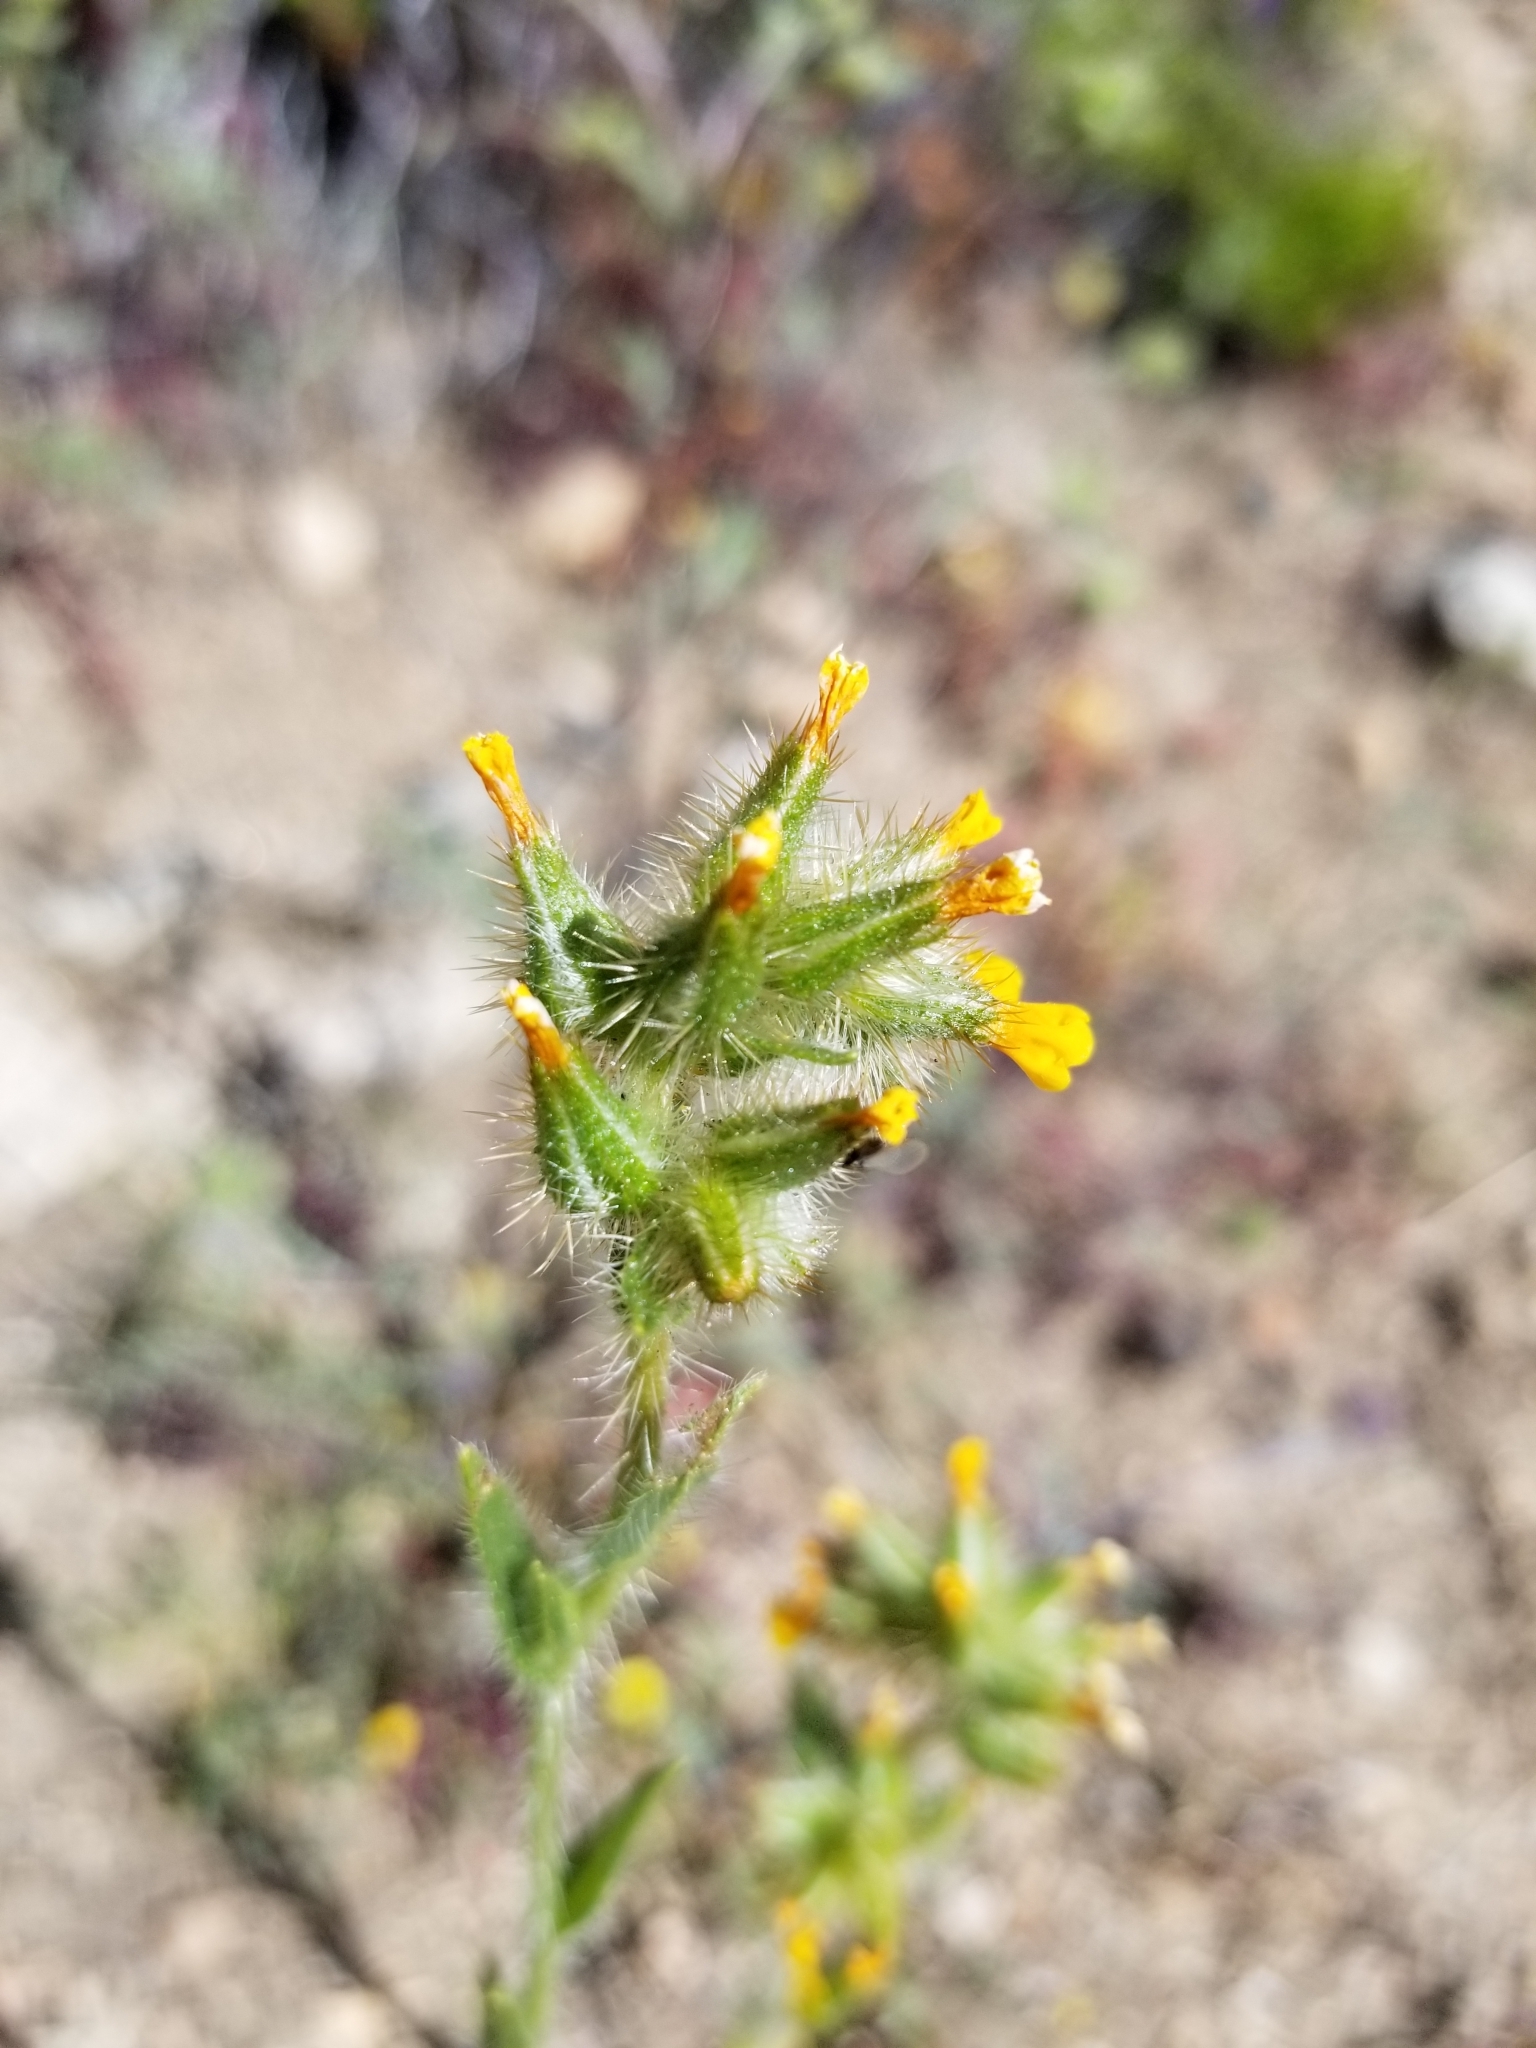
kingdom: Plantae
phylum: Tracheophyta
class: Magnoliopsida
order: Boraginales
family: Boraginaceae
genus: Amsinckia
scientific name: Amsinckia tessellata
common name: Tessellate fiddleneck
